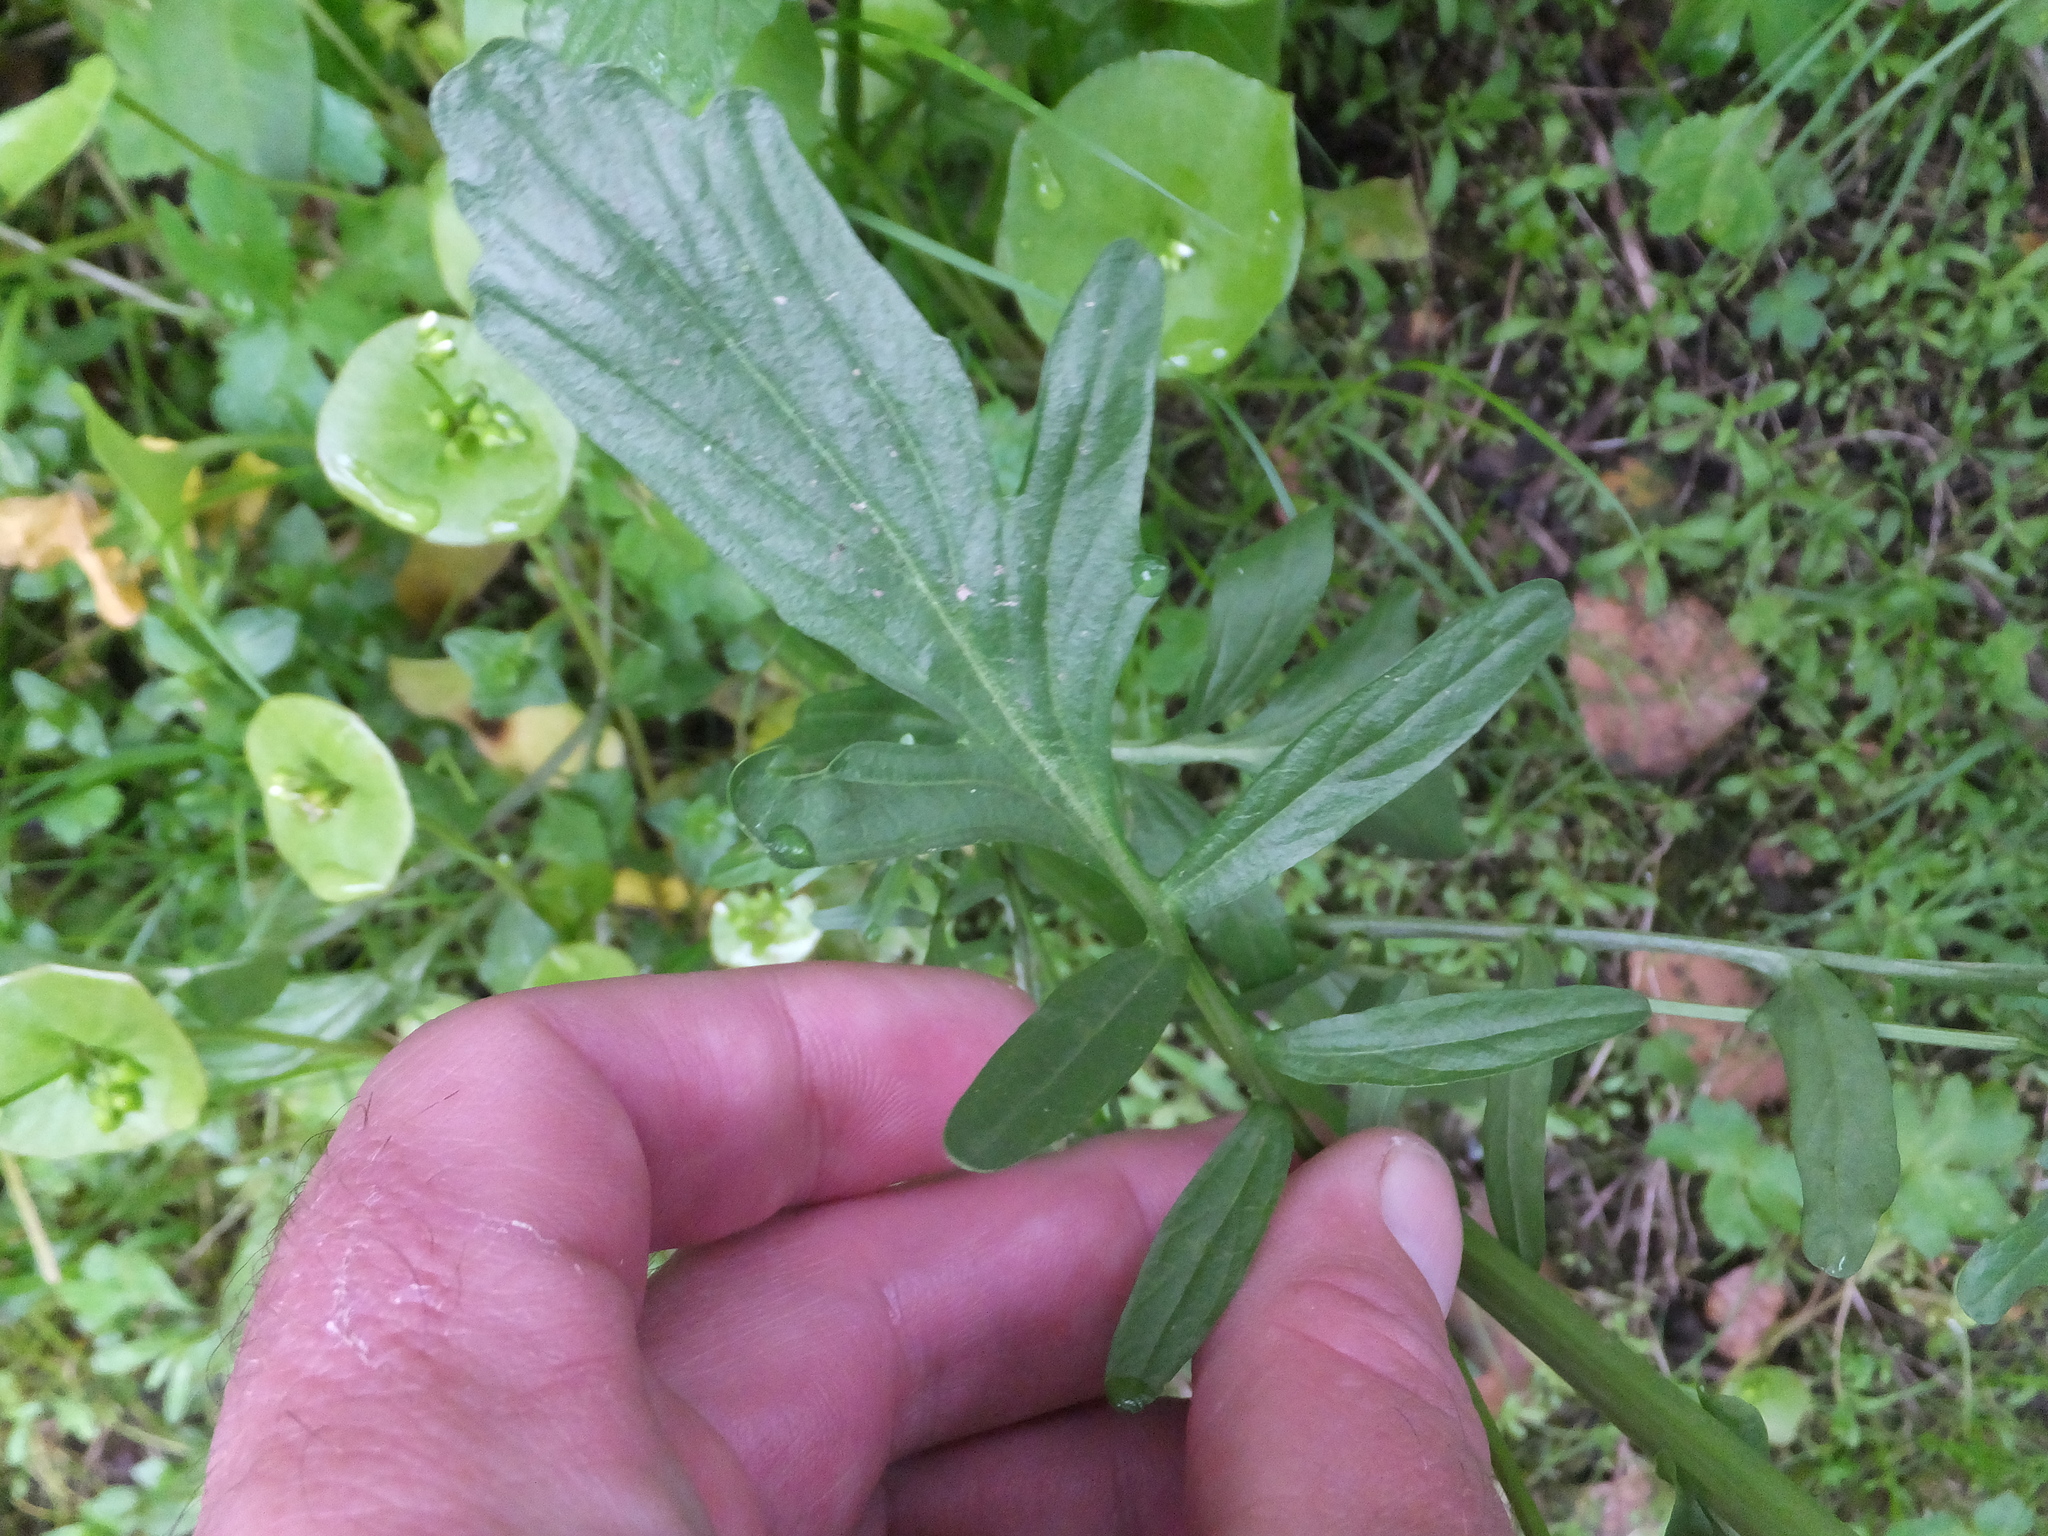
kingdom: Plantae
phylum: Tracheophyta
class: Magnoliopsida
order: Brassicales
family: Brassicaceae
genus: Barbarea
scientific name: Barbarea orthoceras
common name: American wintercress
